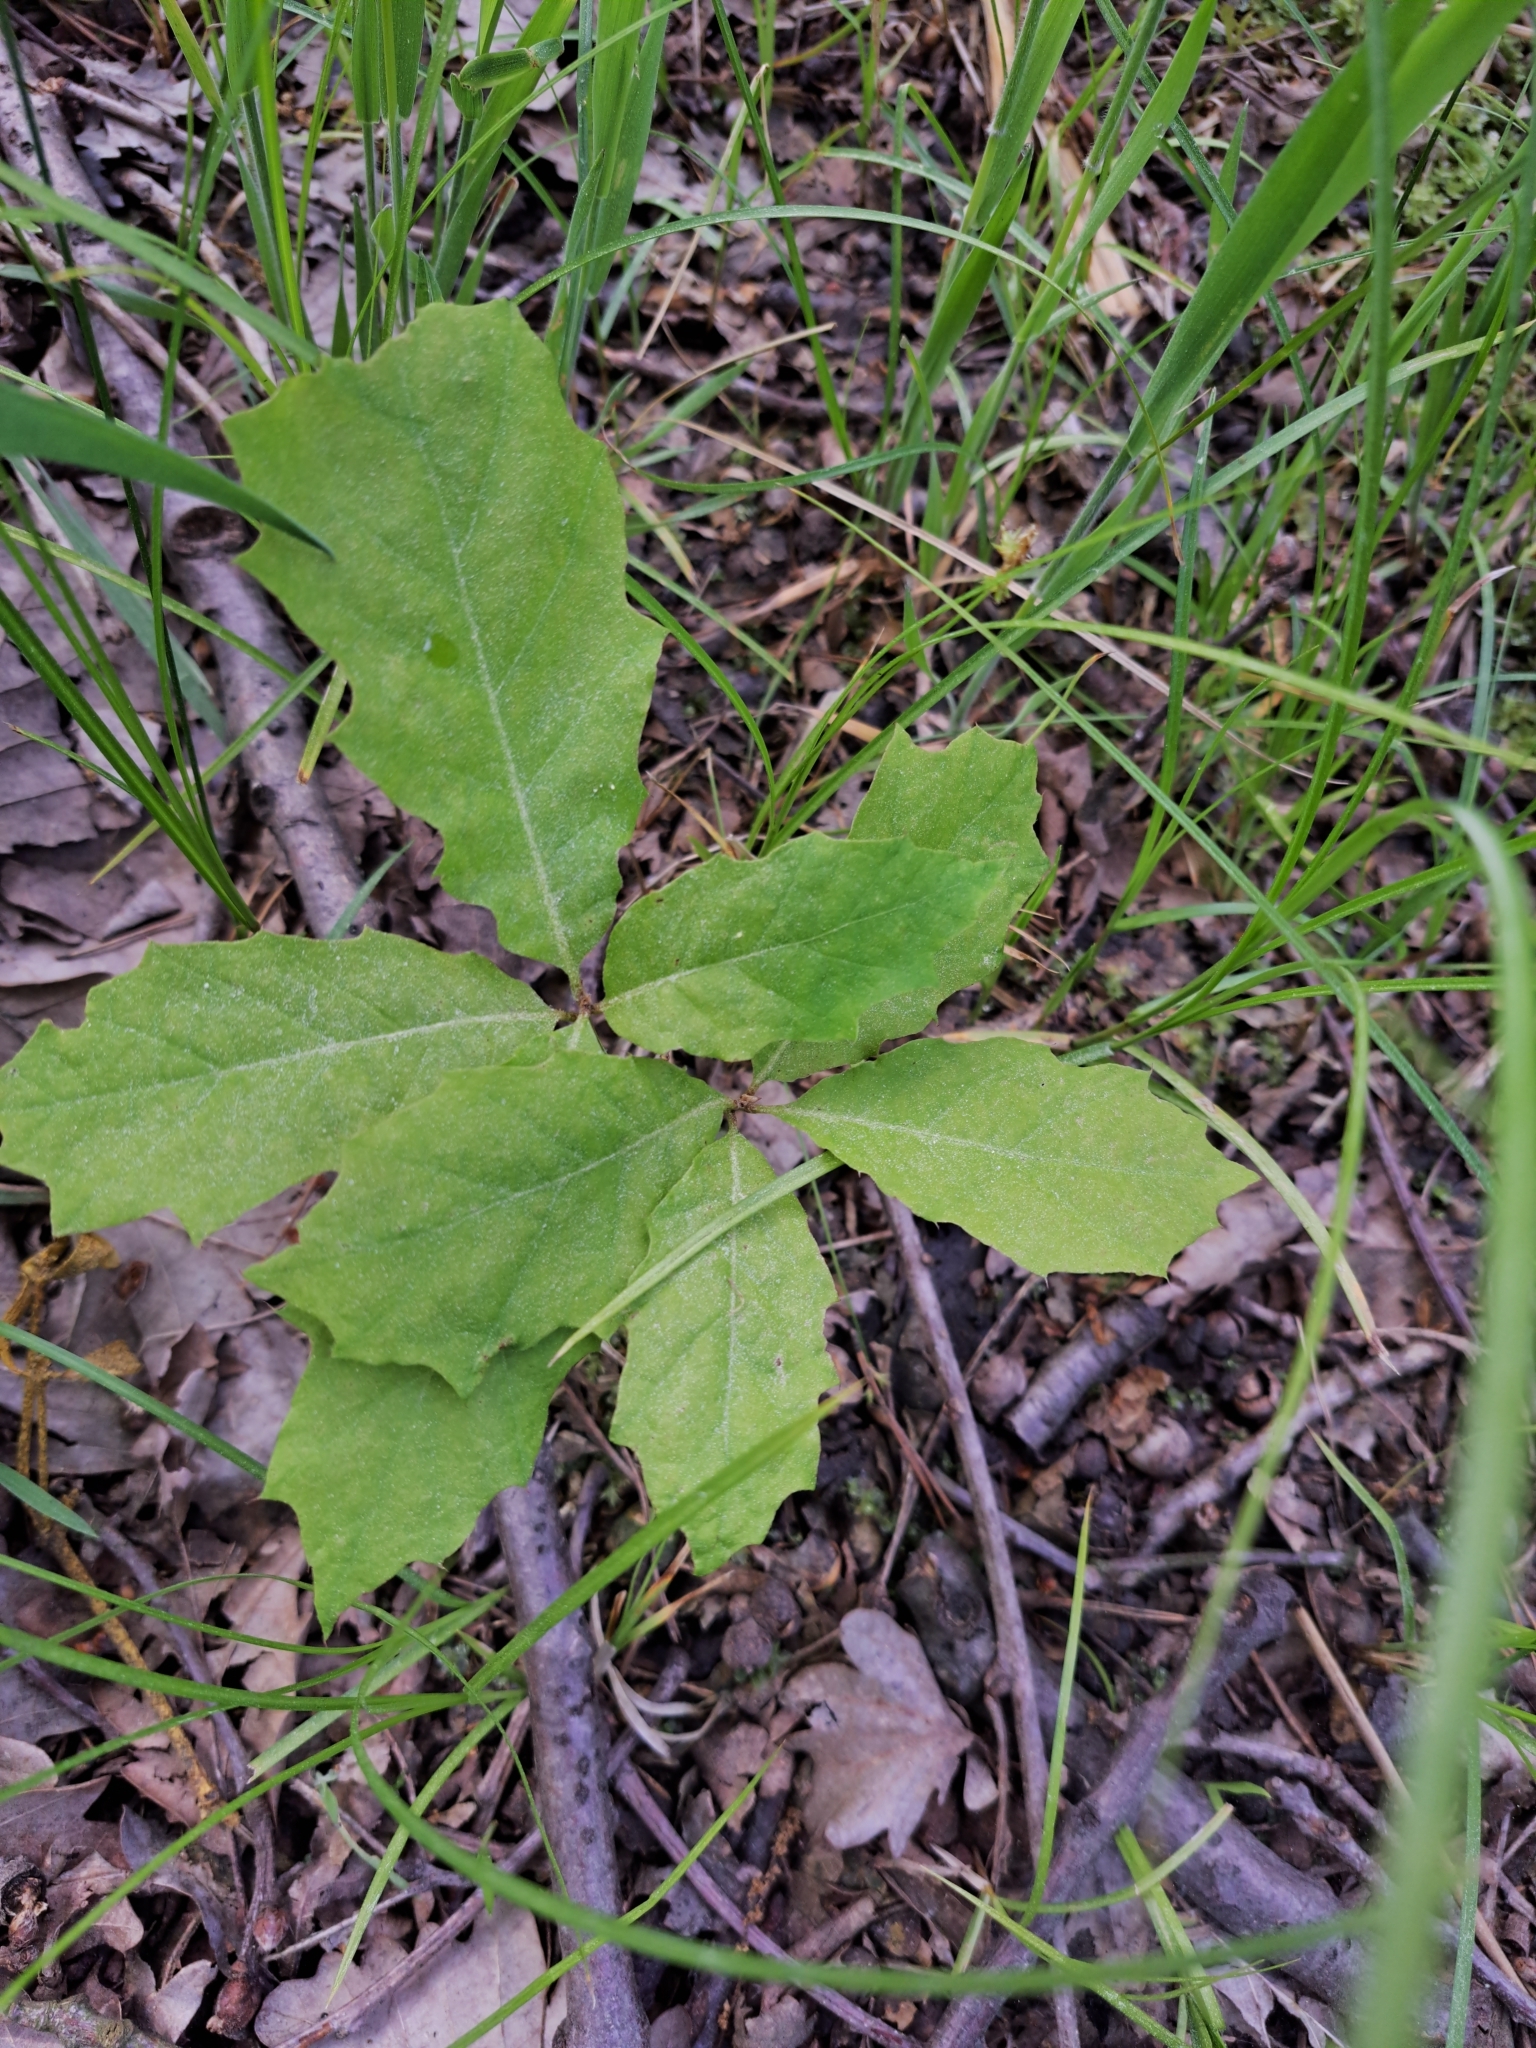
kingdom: Plantae
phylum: Tracheophyta
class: Magnoliopsida
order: Fagales
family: Fagaceae
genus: Quercus
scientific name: Quercus rubra
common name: Red oak
